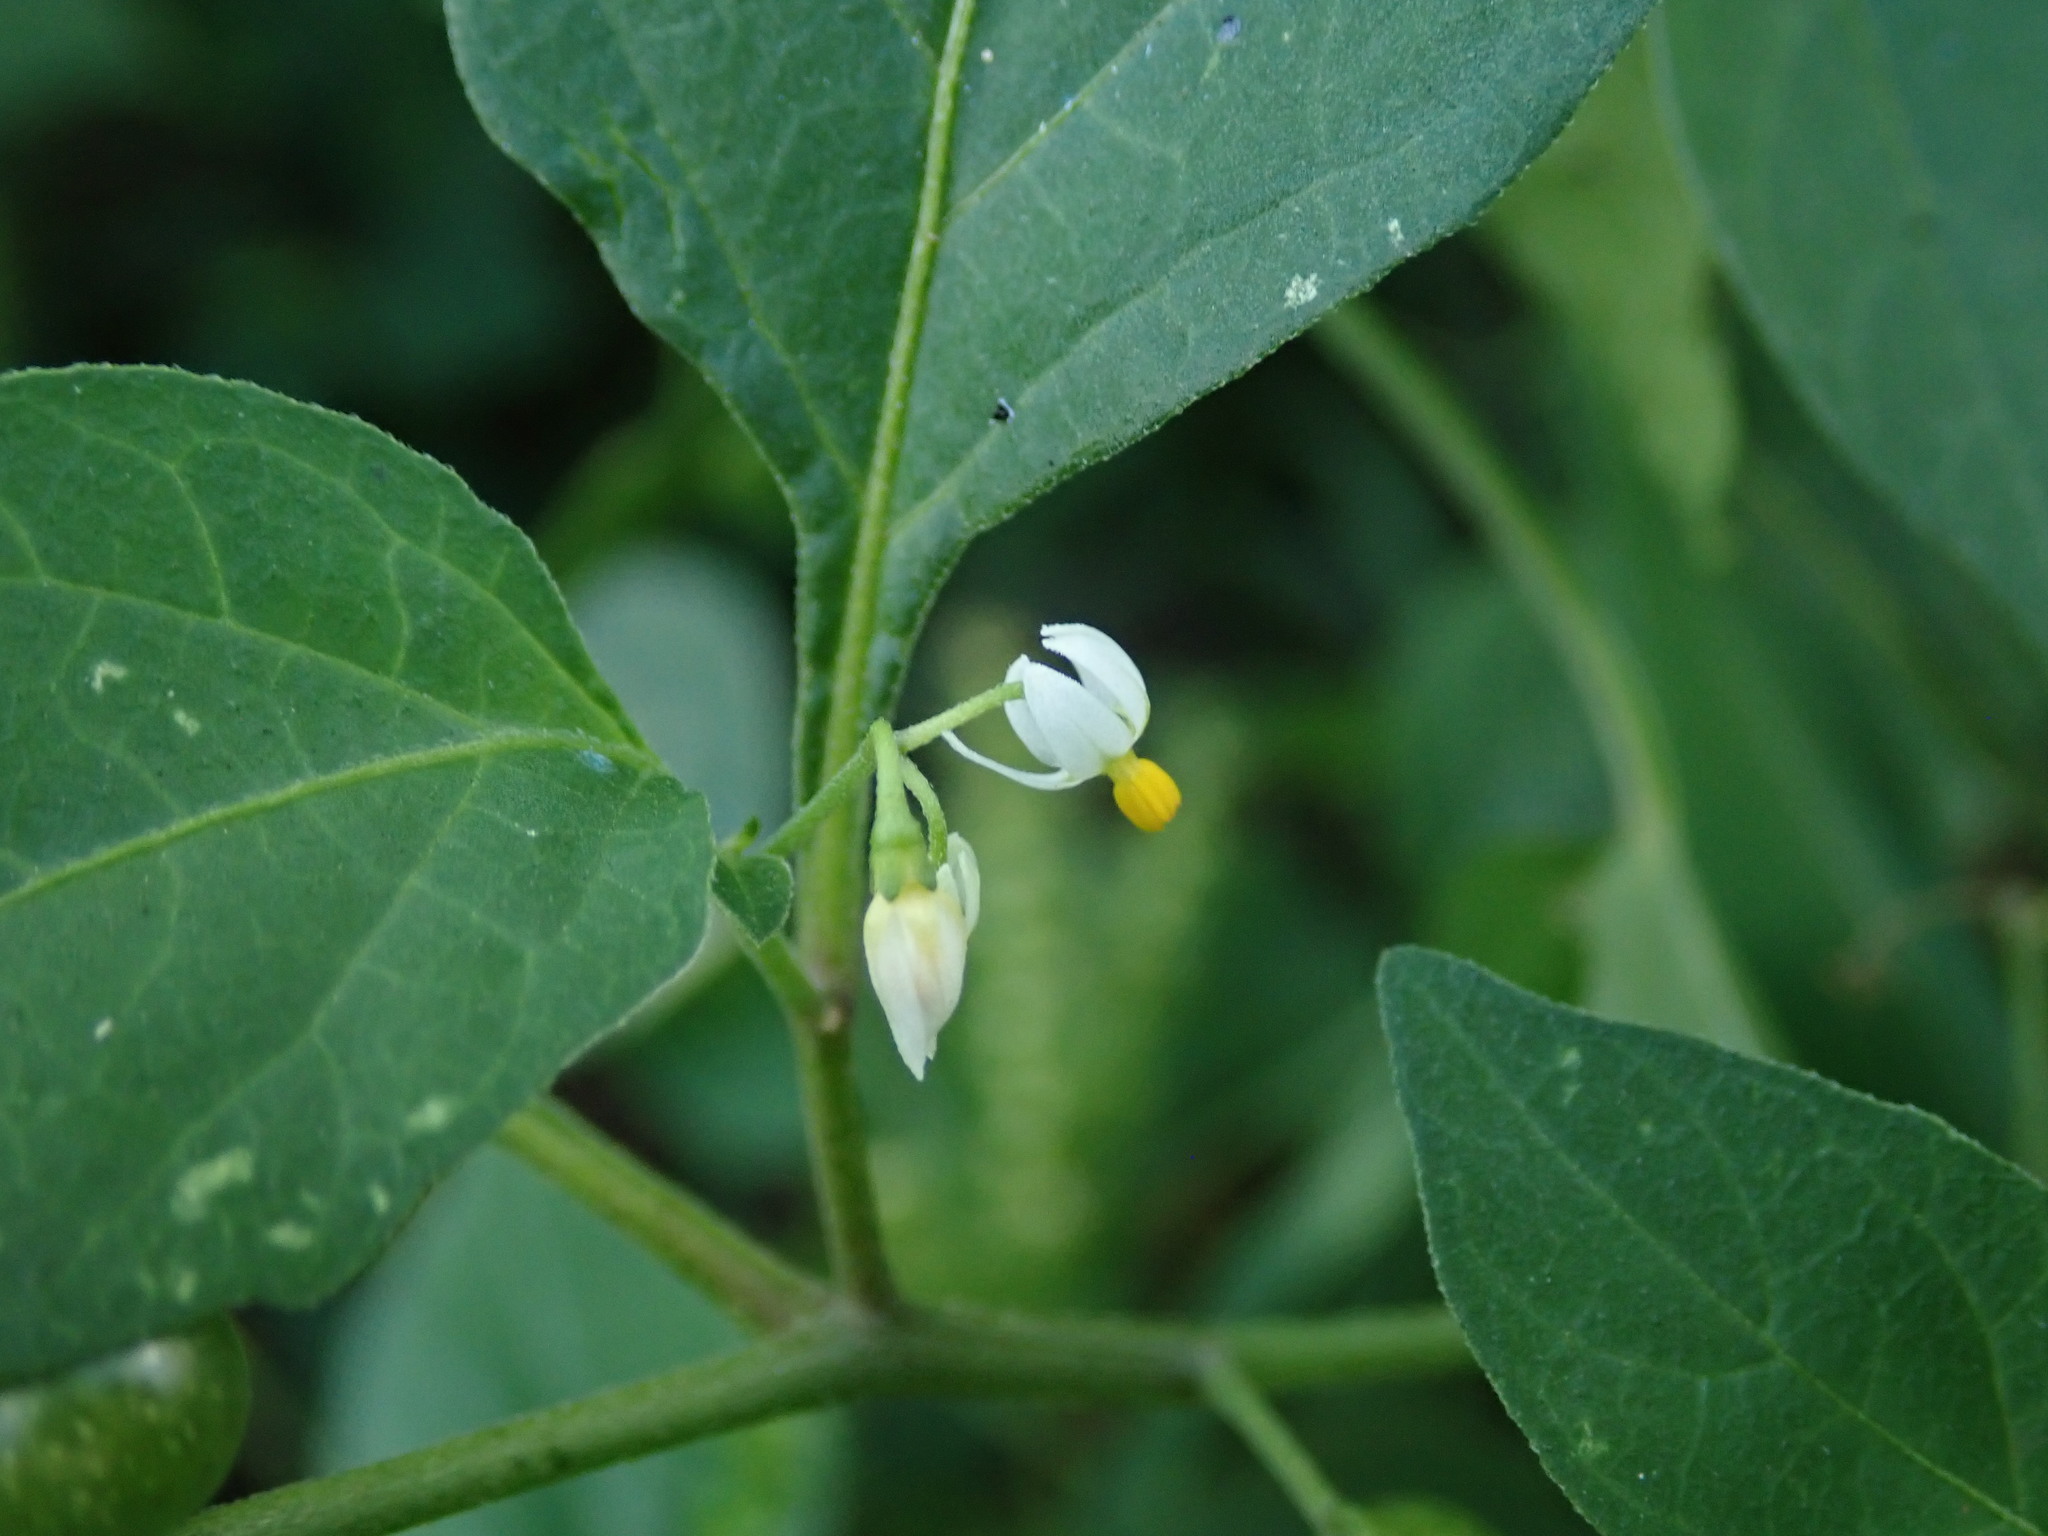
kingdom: Plantae
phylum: Tracheophyta
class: Magnoliopsida
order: Solanales
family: Solanaceae
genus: Solanum
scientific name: Solanum americanum
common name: American black nightshade
